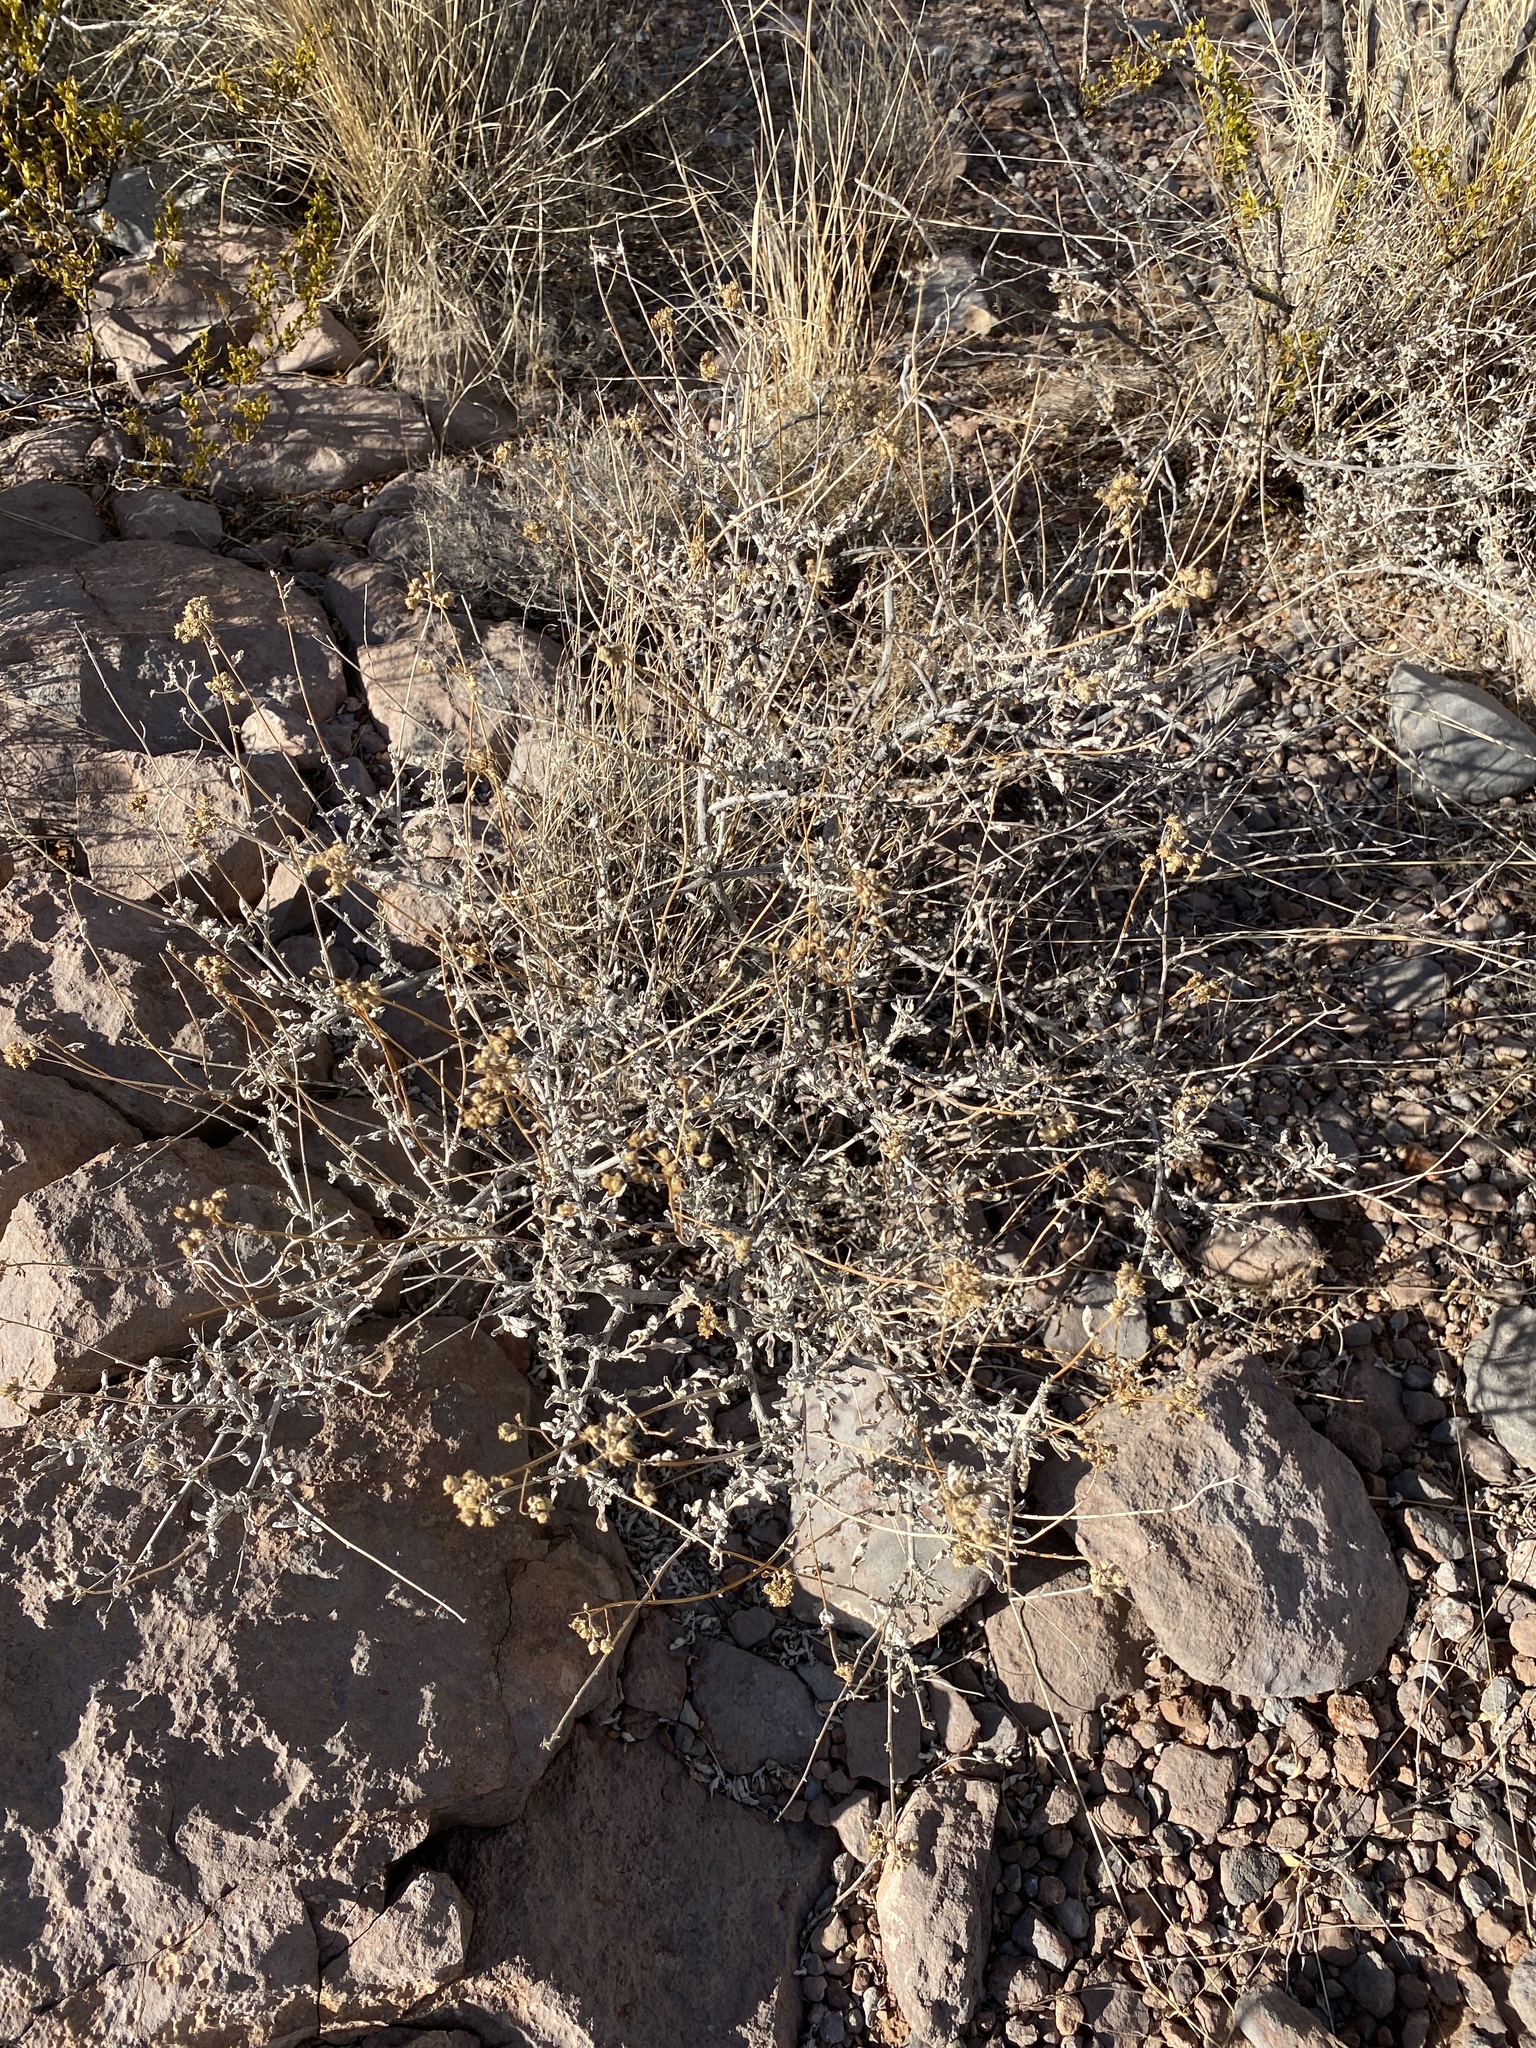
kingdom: Plantae
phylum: Tracheophyta
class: Magnoliopsida
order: Asterales
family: Asteraceae
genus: Parthenium
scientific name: Parthenium incanum
